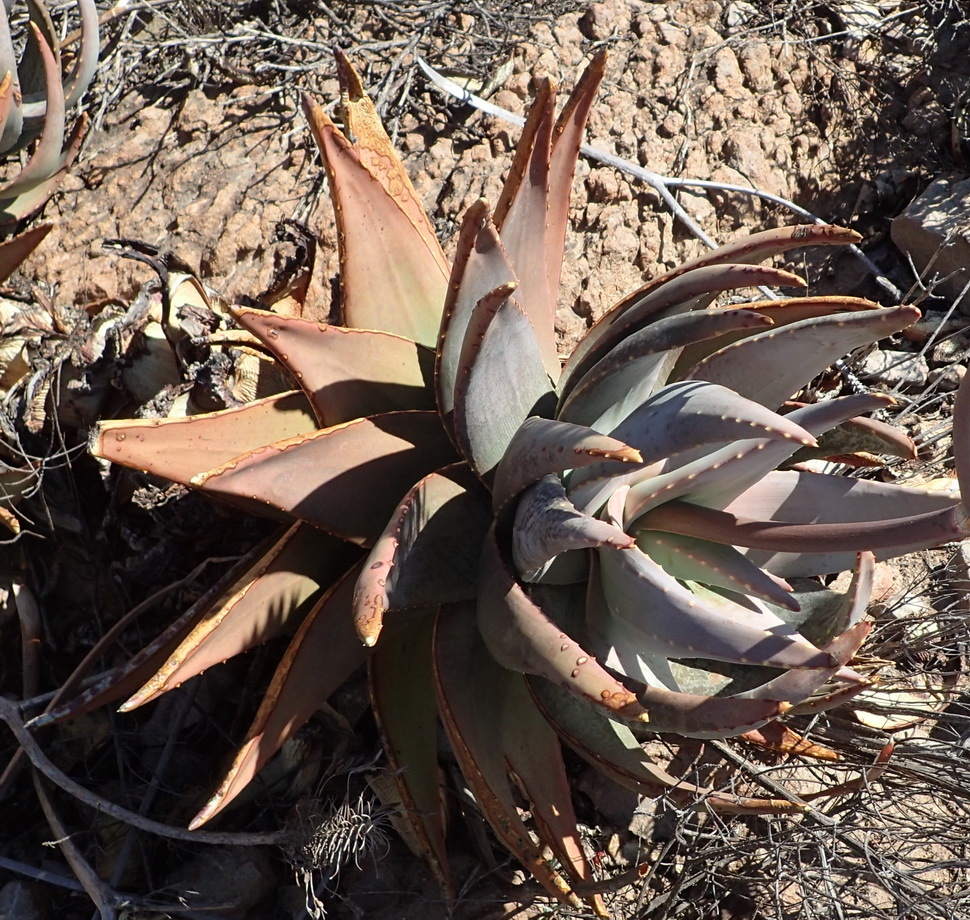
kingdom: Plantae
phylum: Tracheophyta
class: Liliopsida
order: Asparagales
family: Asphodelaceae
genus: Aloe
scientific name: Aloe comptonii
